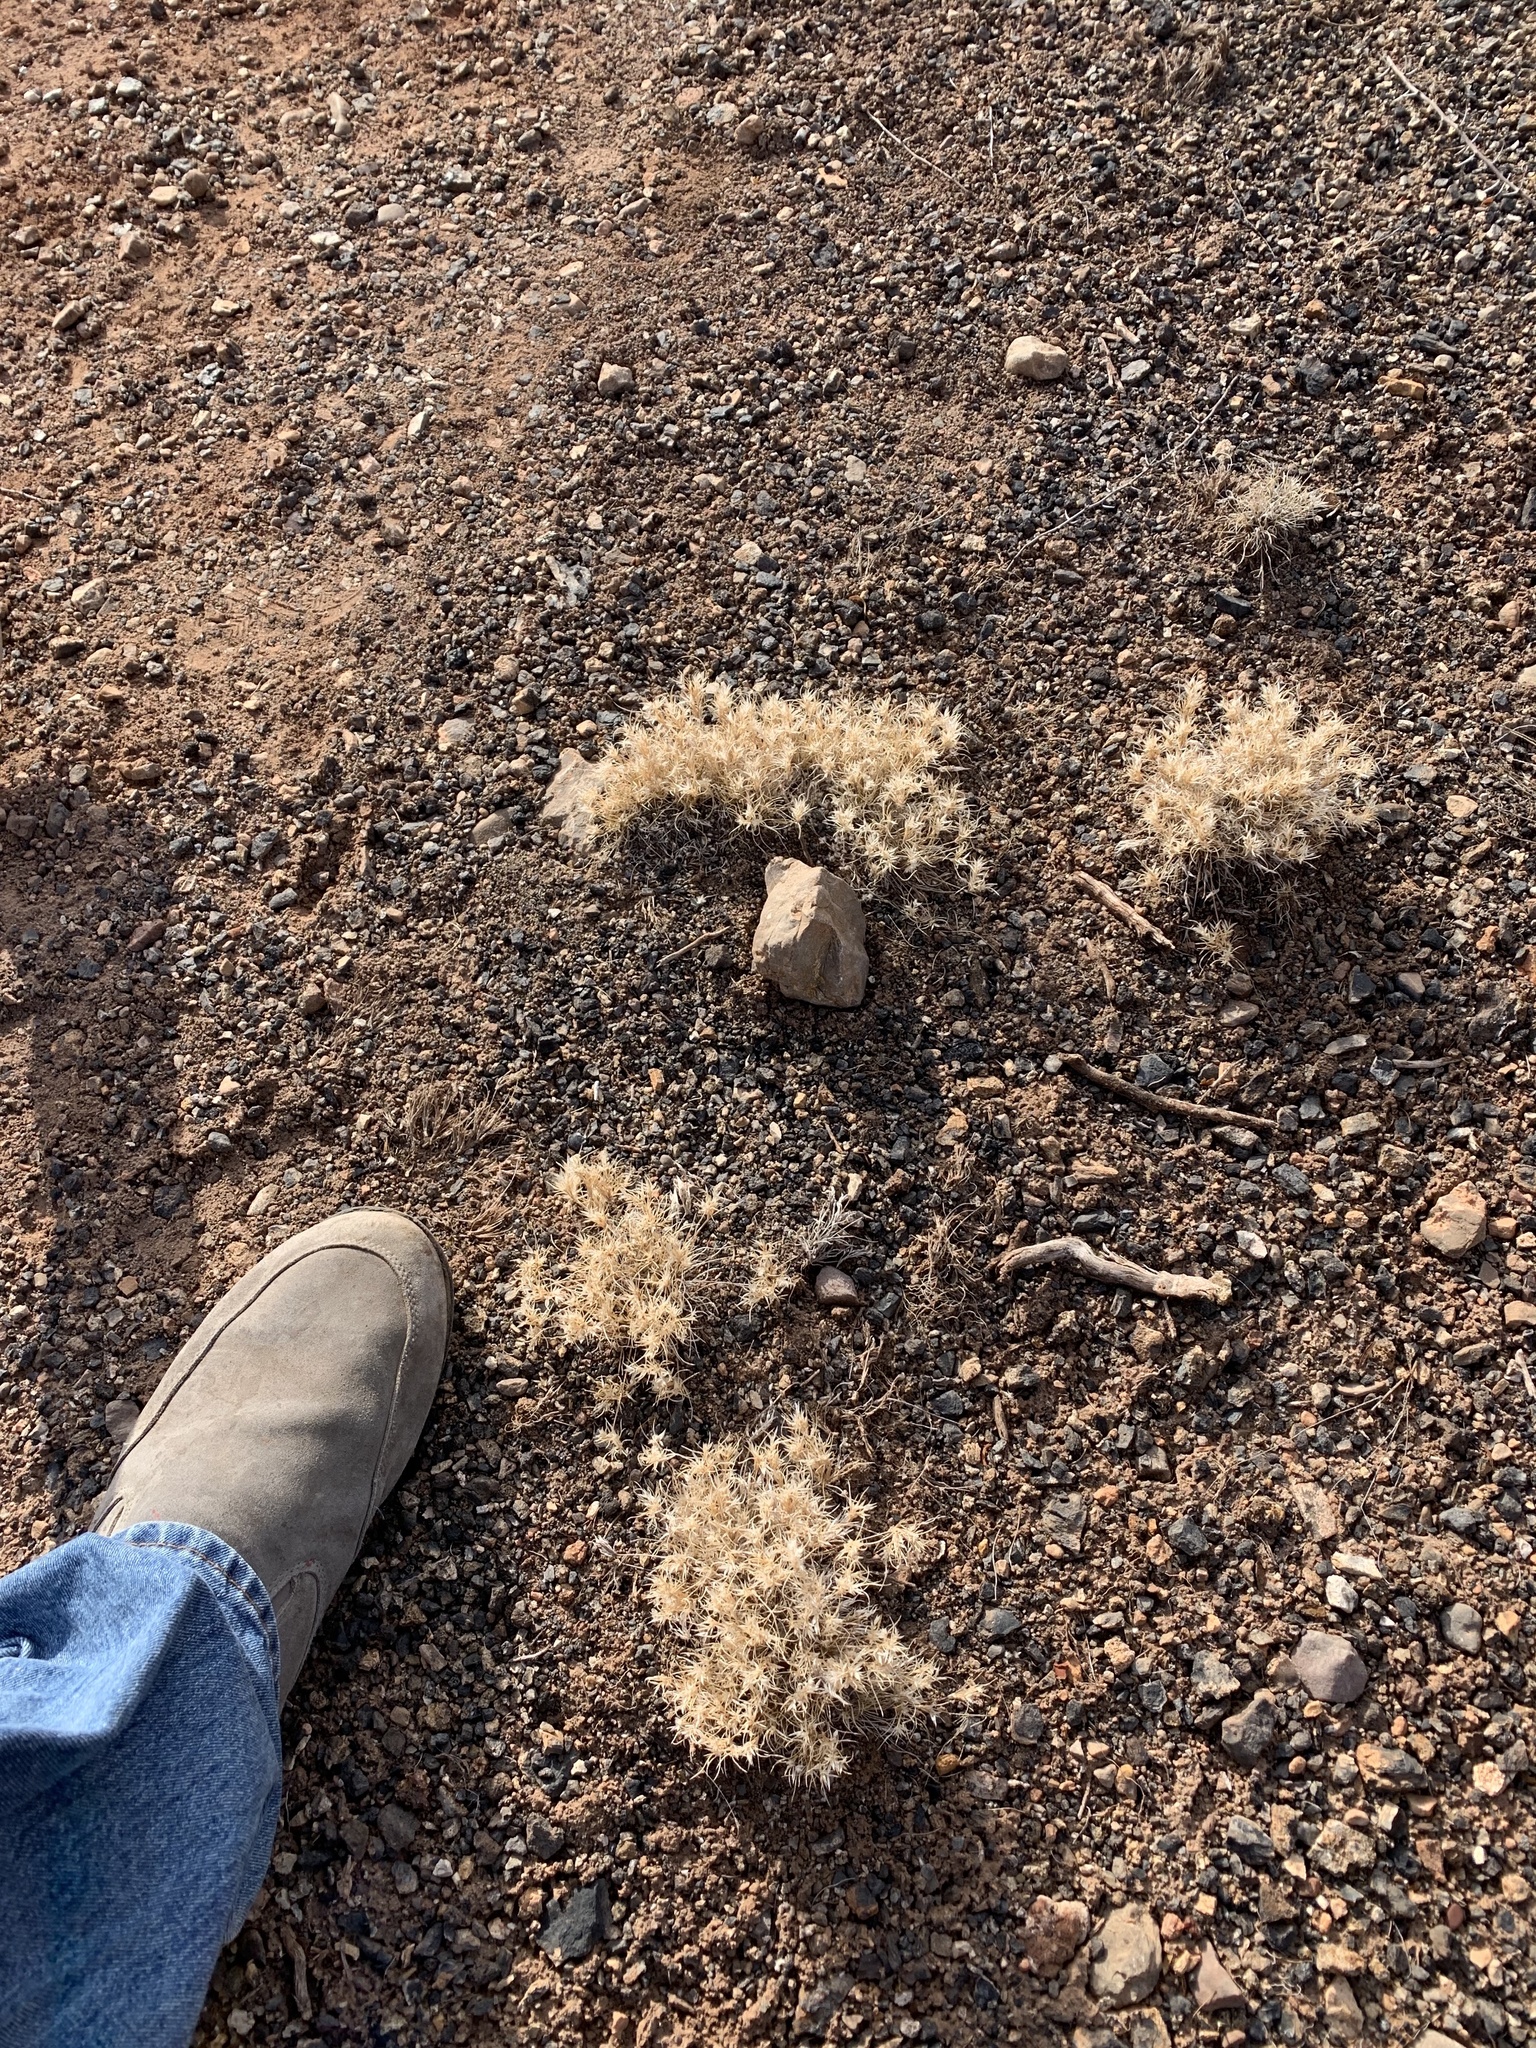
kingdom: Plantae
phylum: Tracheophyta
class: Liliopsida
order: Poales
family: Poaceae
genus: Dasyochloa
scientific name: Dasyochloa pulchella
